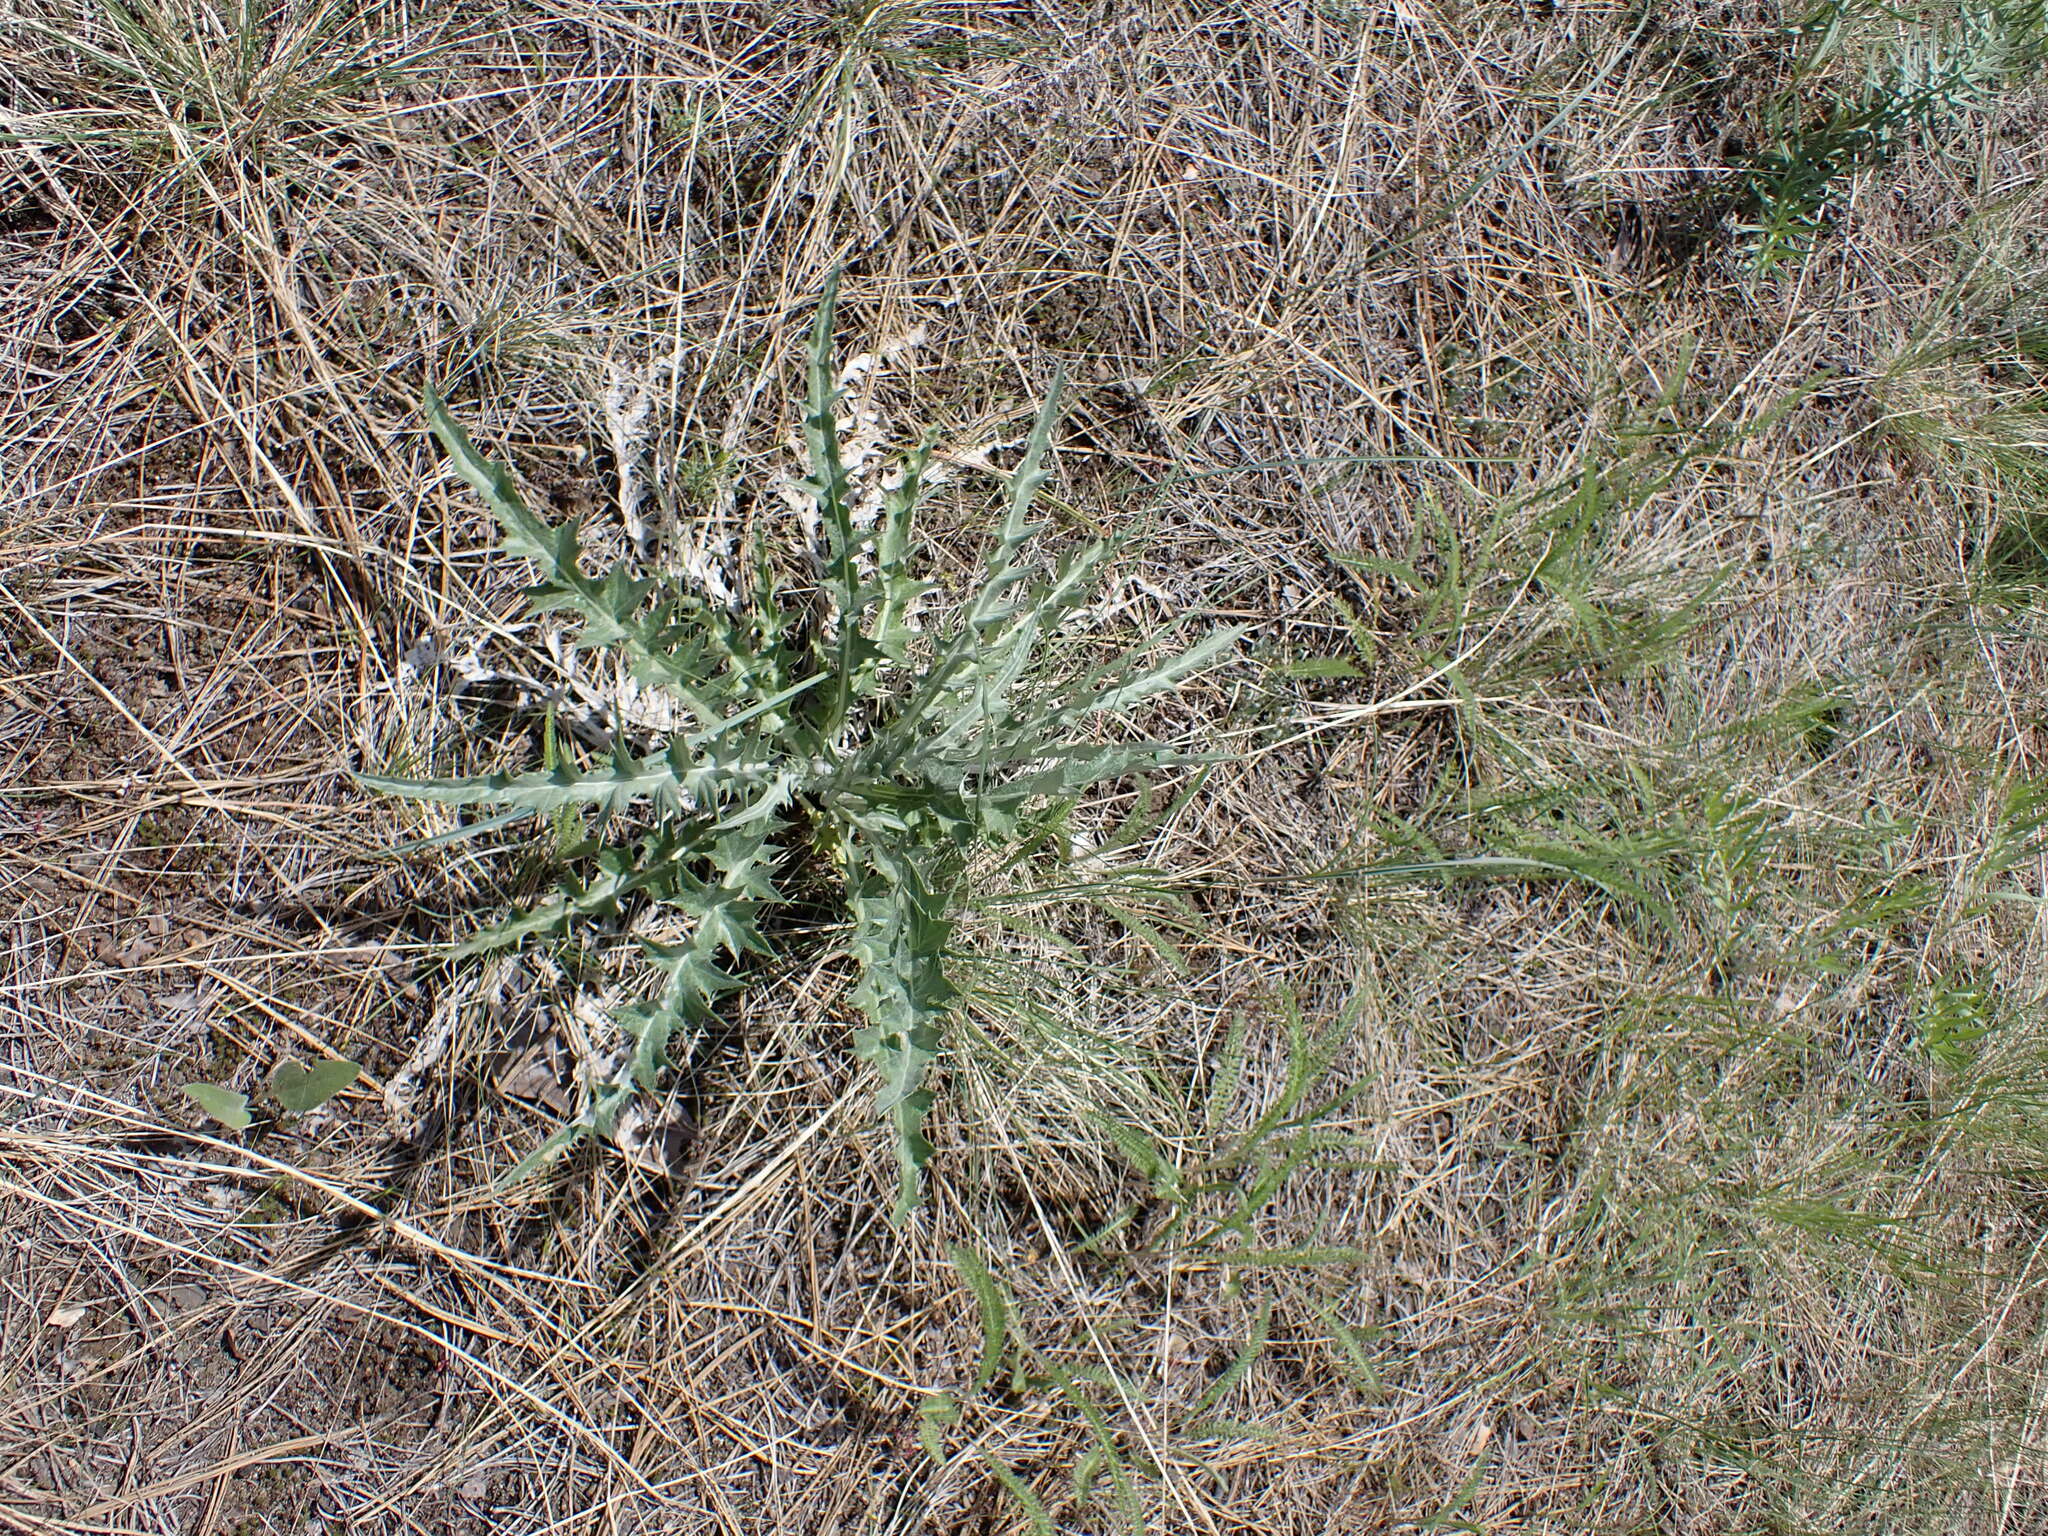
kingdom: Plantae
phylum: Tracheophyta
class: Magnoliopsida
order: Asterales
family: Asteraceae
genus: Cirsium
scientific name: Cirsium undulatum
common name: Pasture thistle
